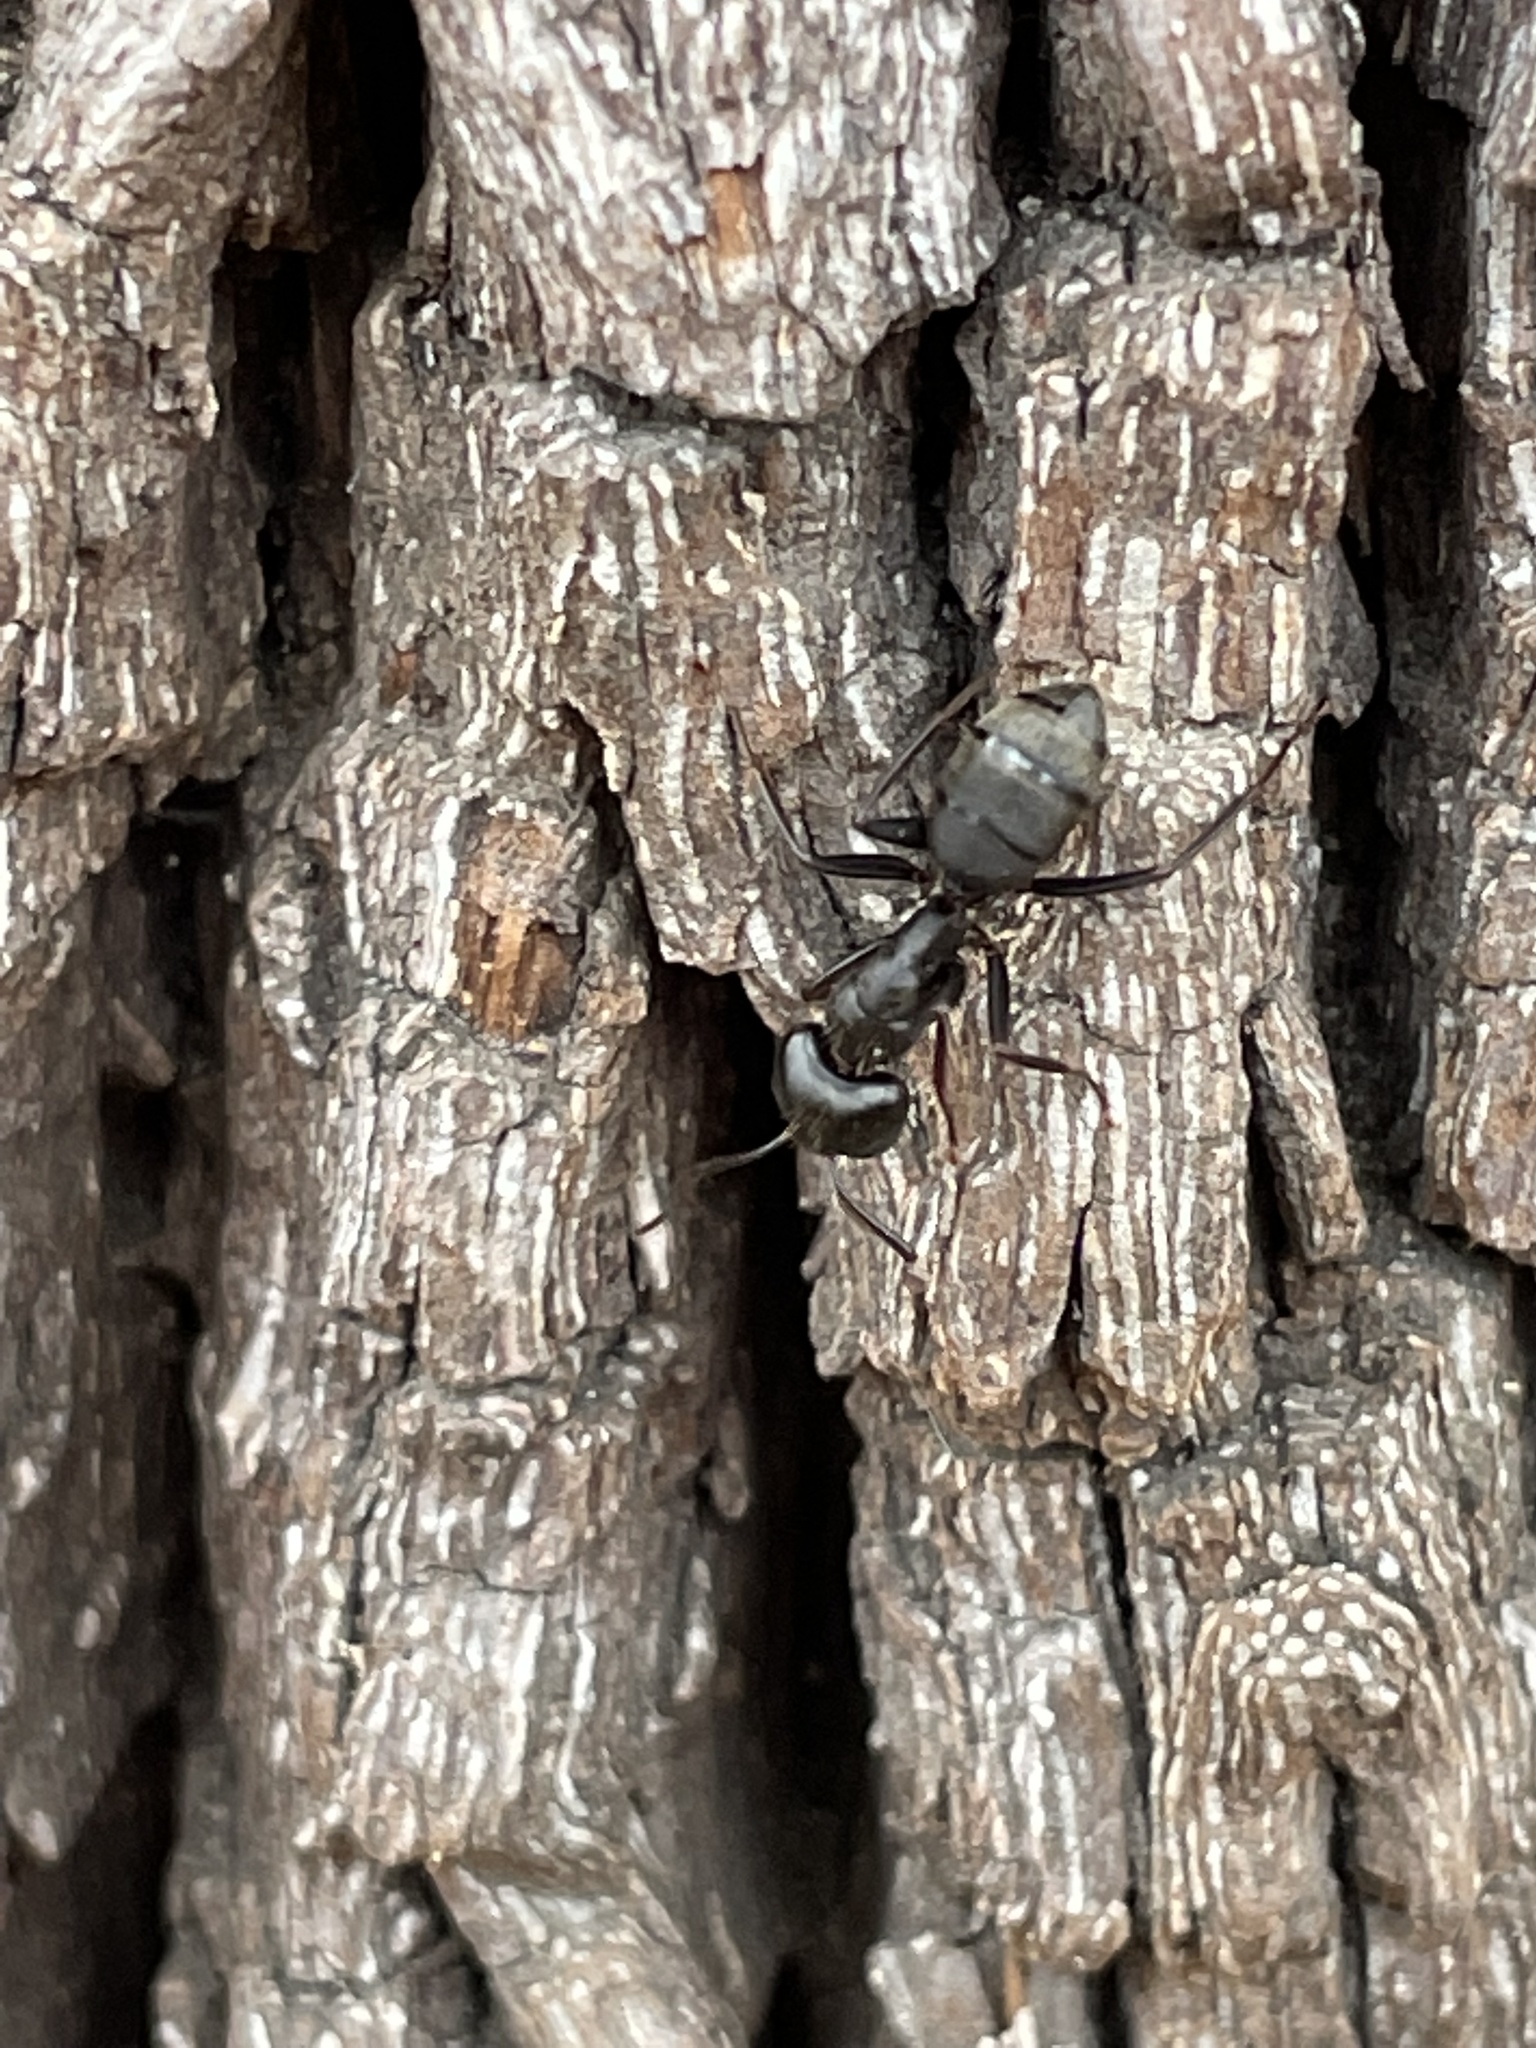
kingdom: Animalia
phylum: Arthropoda
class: Insecta
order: Hymenoptera
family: Formicidae
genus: Camponotus
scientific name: Camponotus pennsylvanicus
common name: Black carpenter ant
